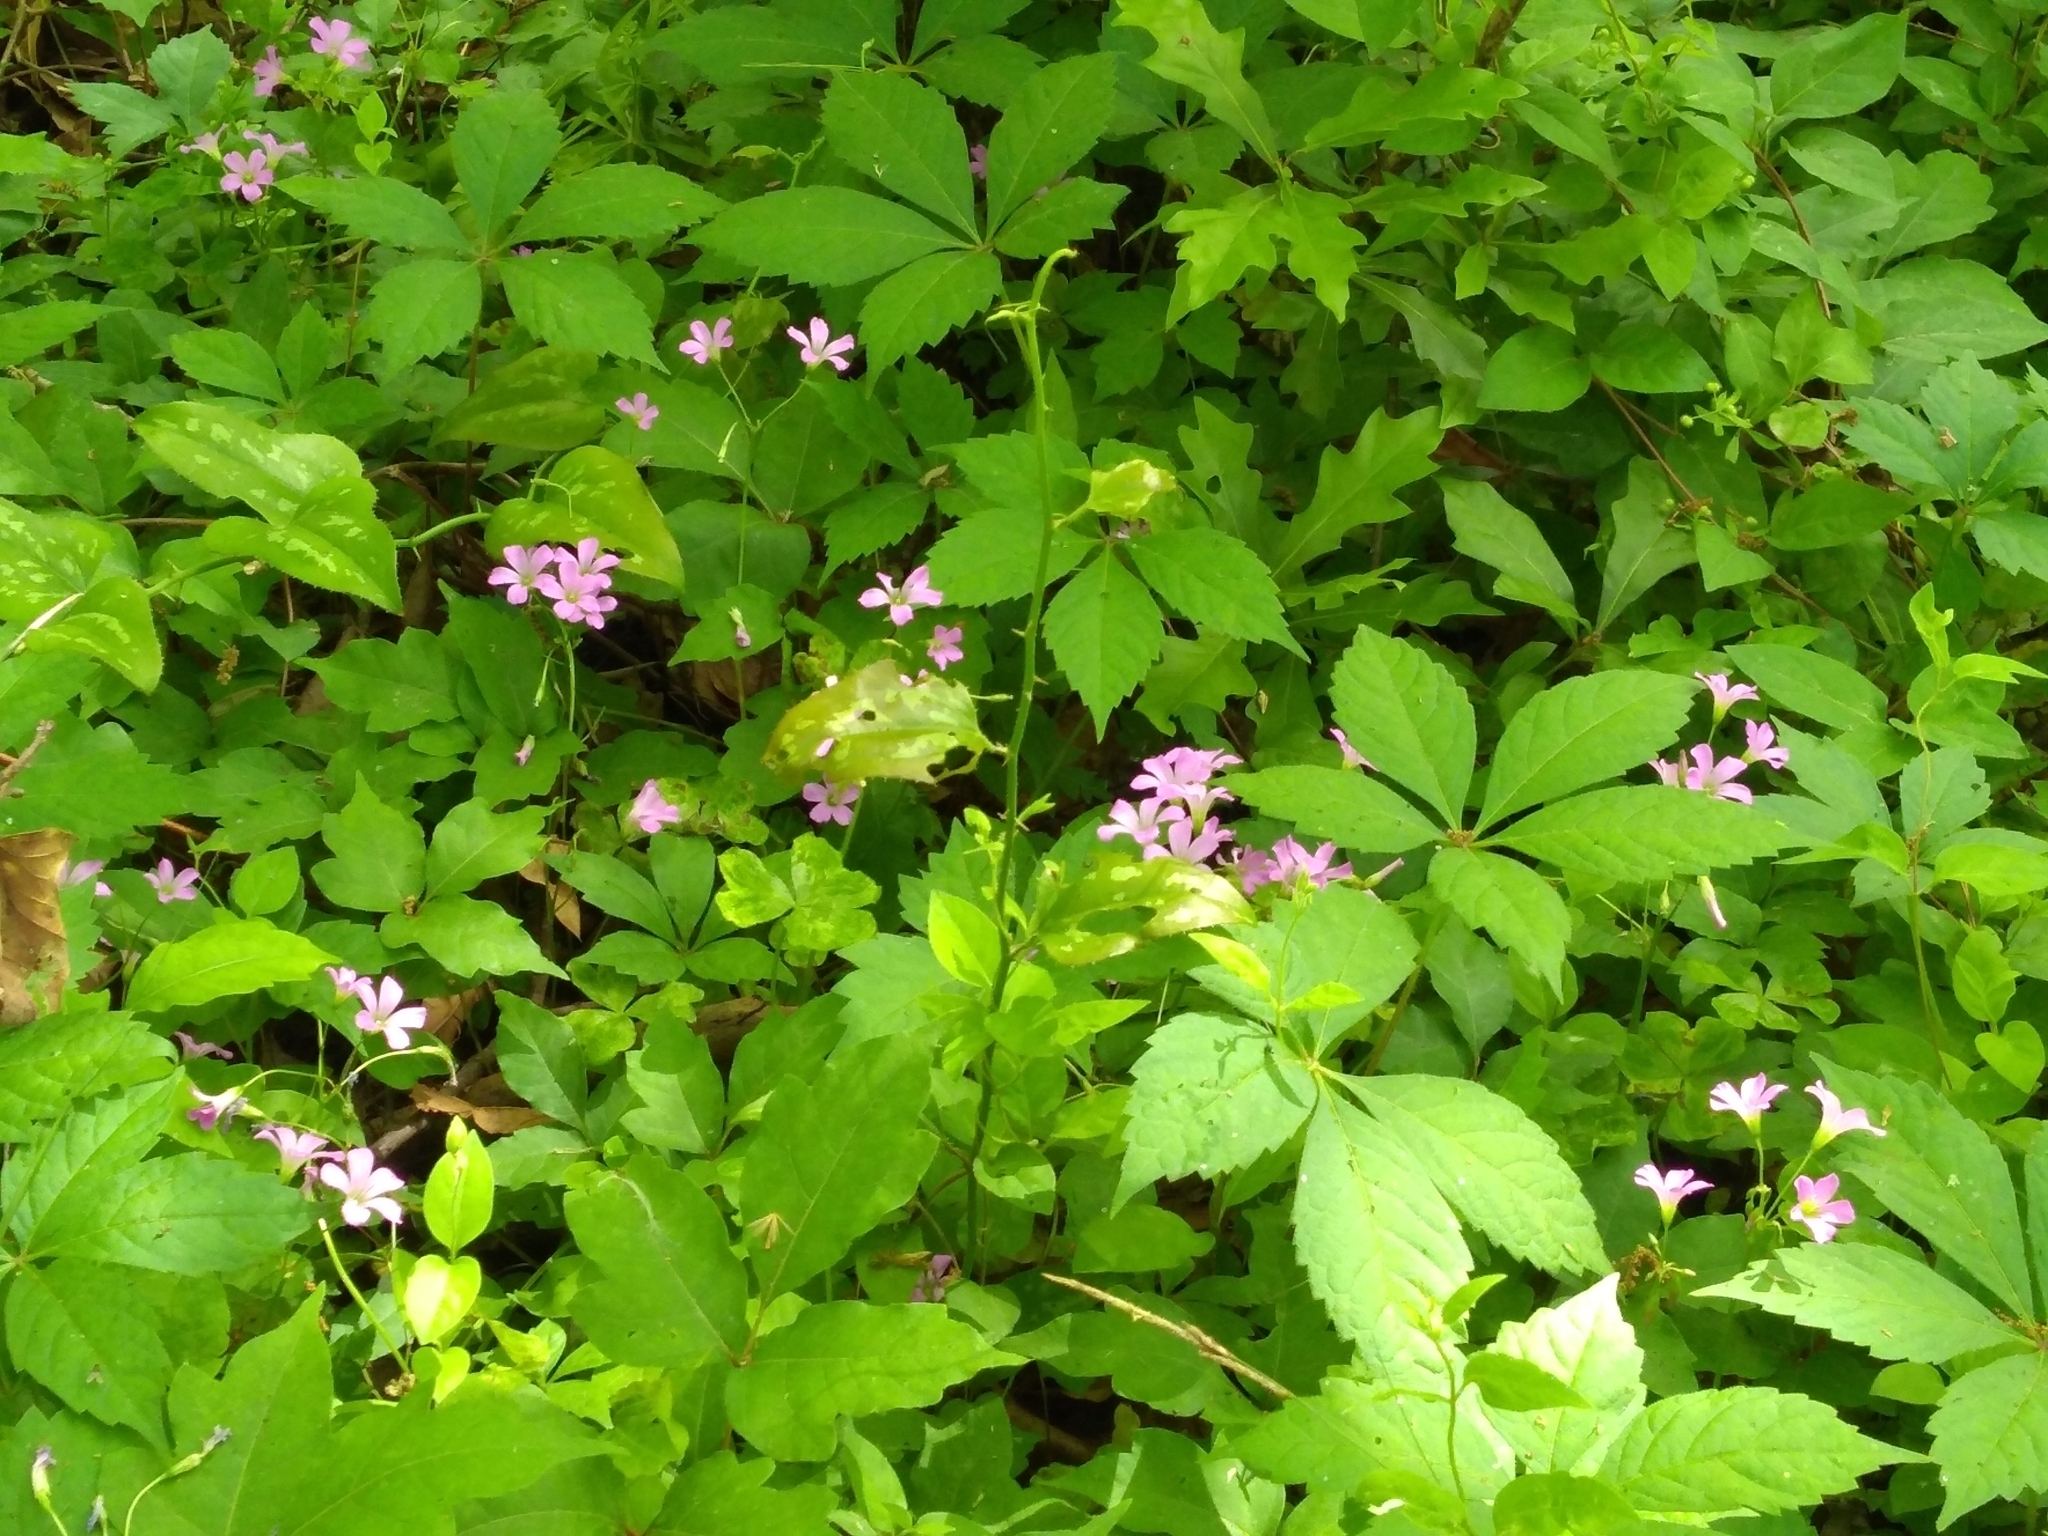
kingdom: Plantae
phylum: Tracheophyta
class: Magnoliopsida
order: Oxalidales
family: Oxalidaceae
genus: Oxalis
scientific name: Oxalis debilis
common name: Large-flowered pink-sorrel
